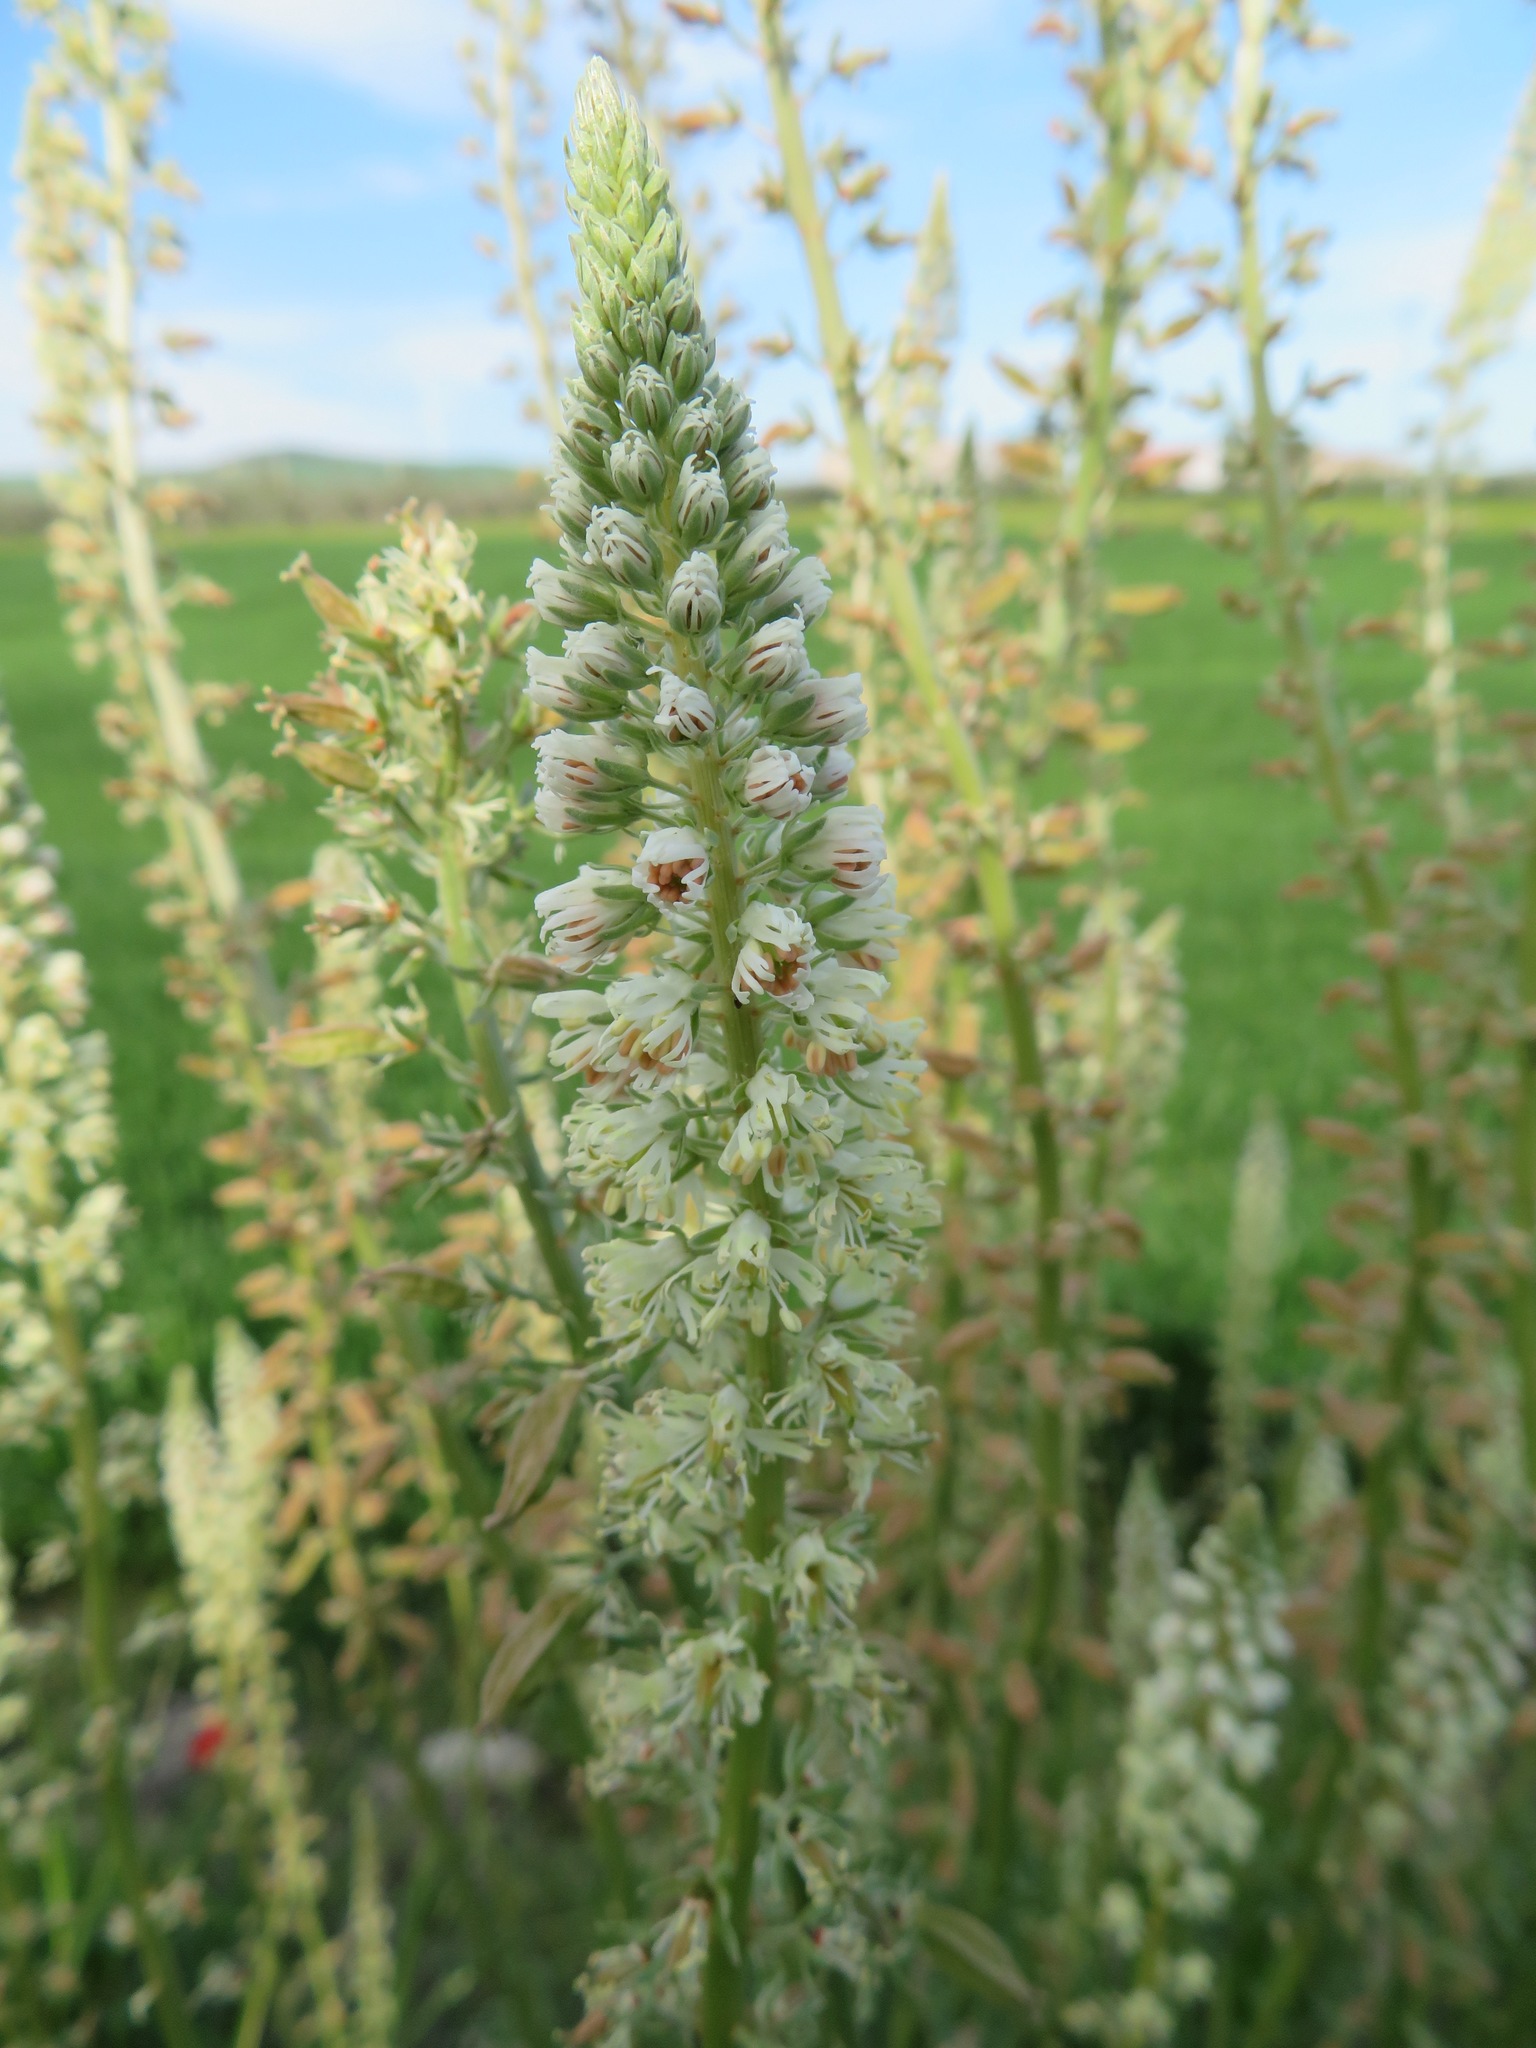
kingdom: Plantae
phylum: Tracheophyta
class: Magnoliopsida
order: Brassicales
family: Resedaceae
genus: Reseda
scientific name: Reseda alba
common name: White mignonette
